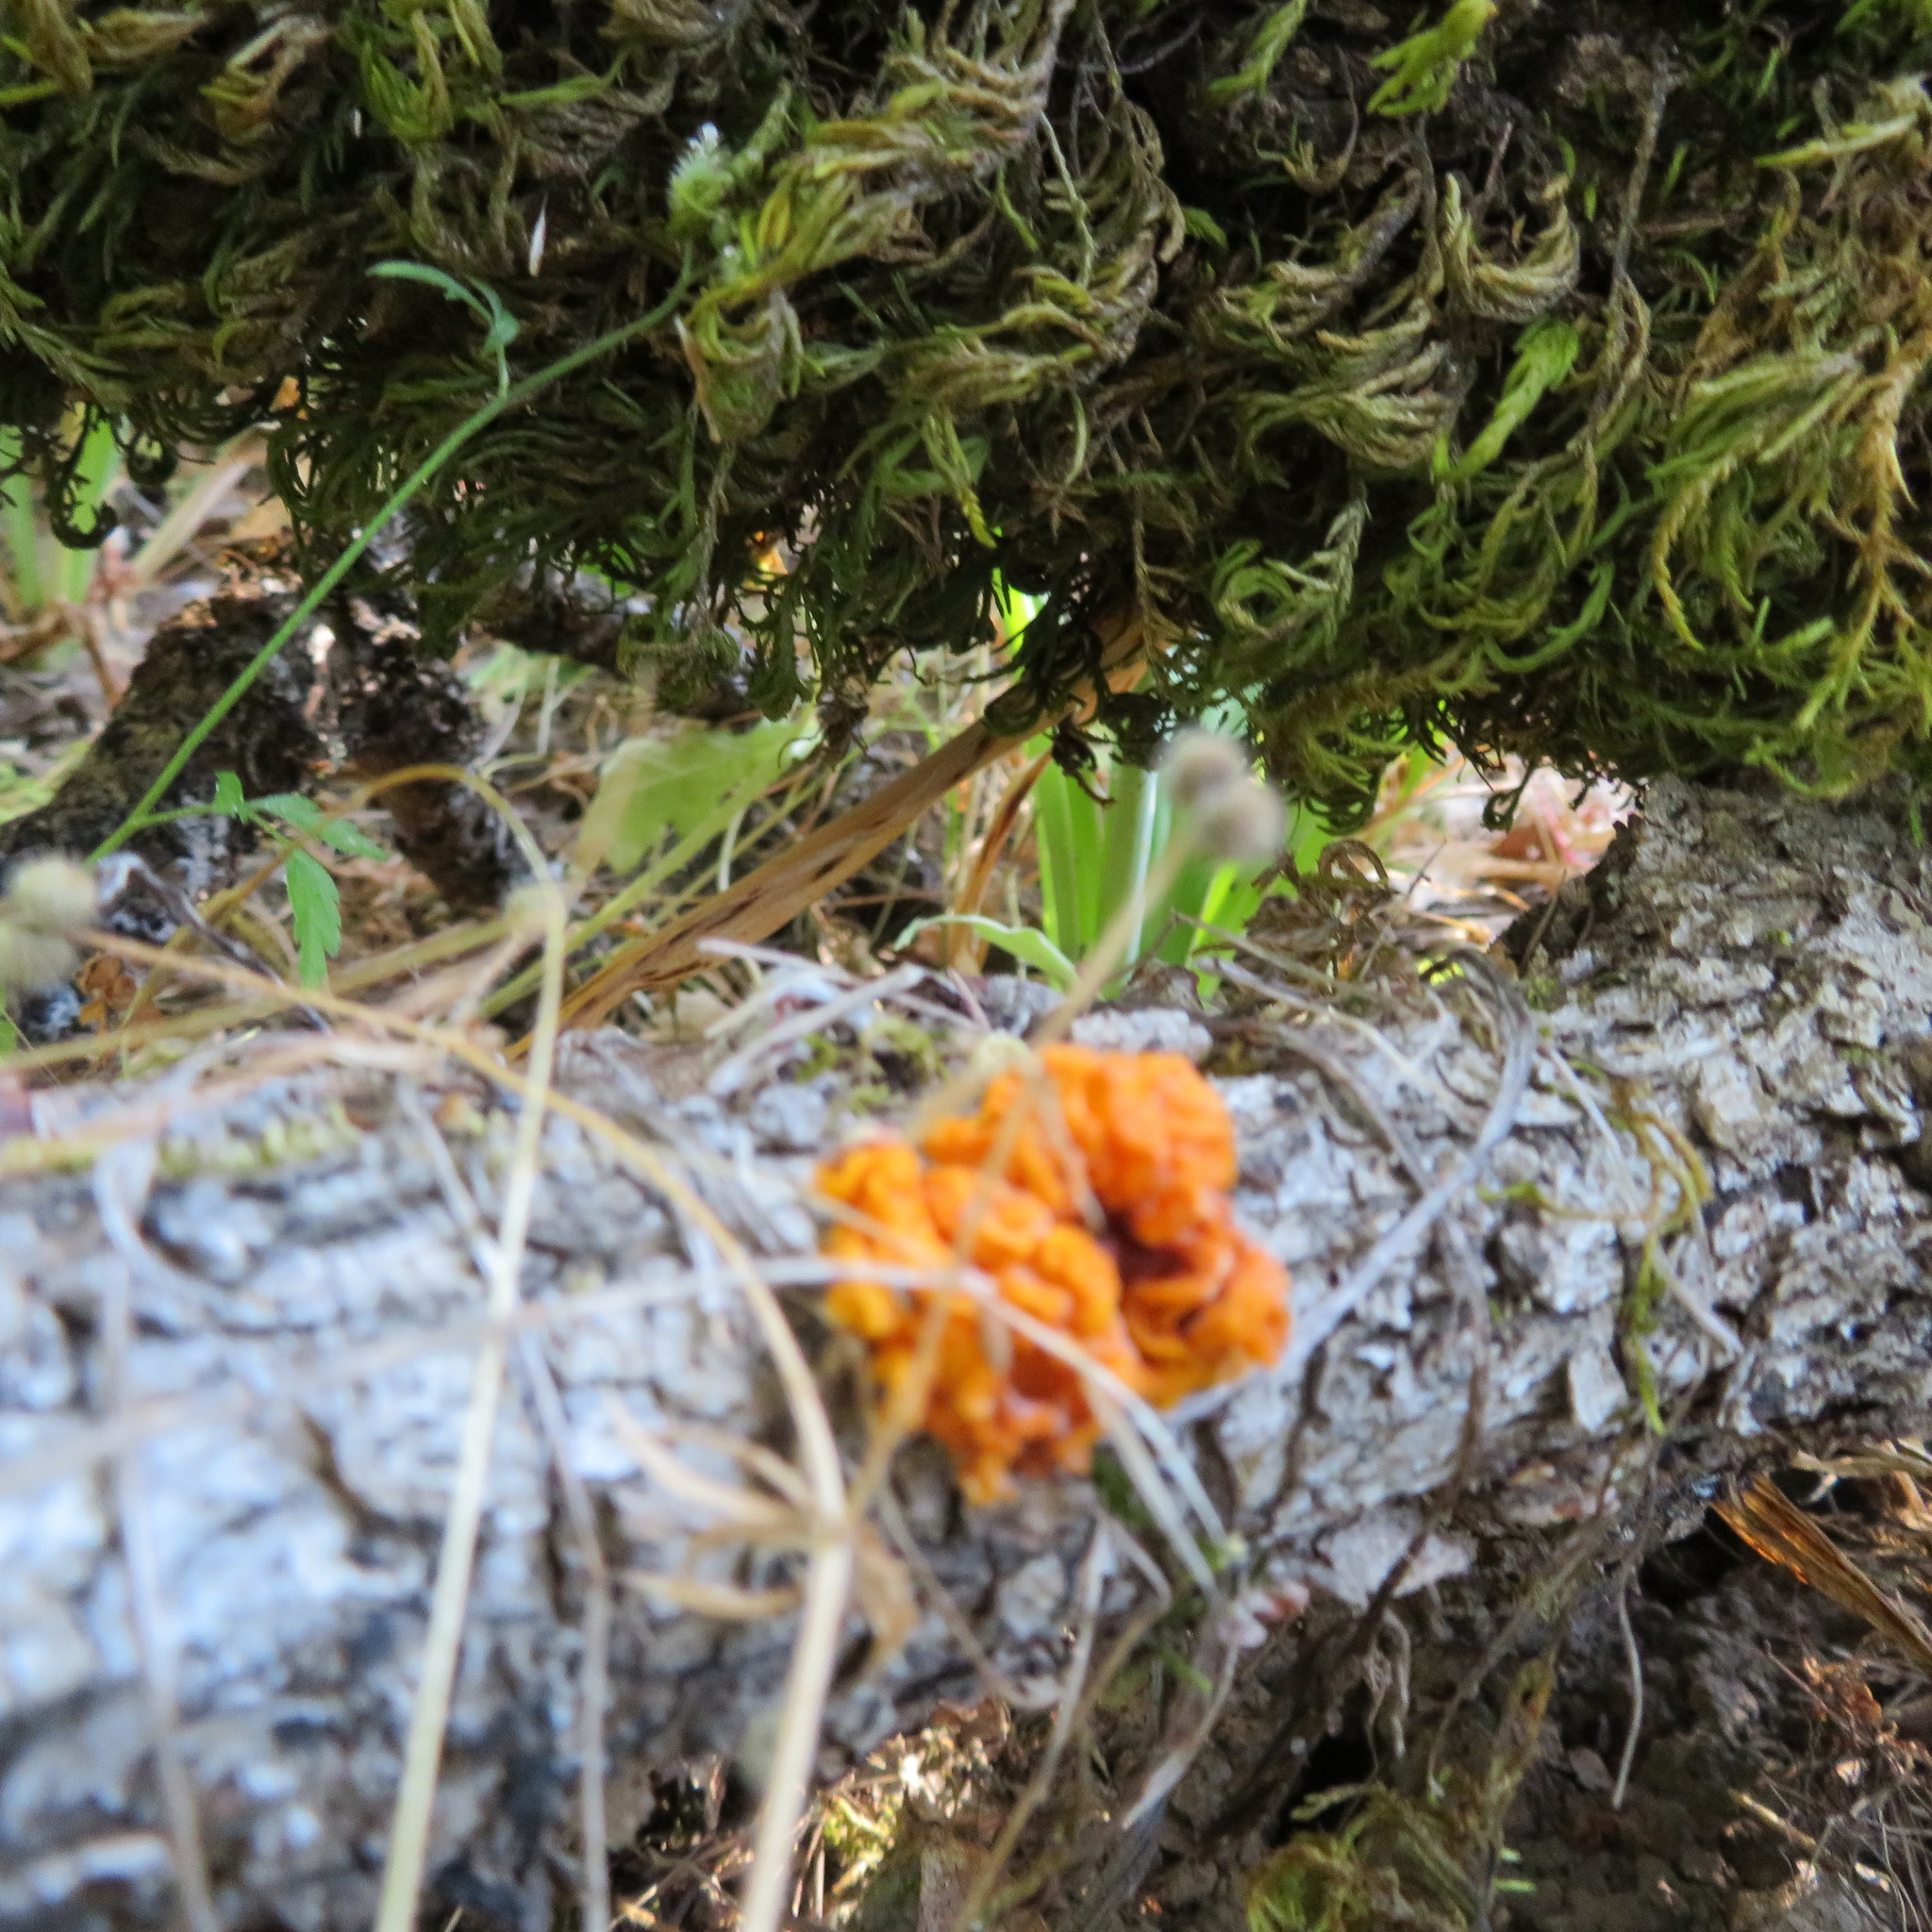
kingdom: Fungi
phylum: Basidiomycota
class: Tremellomycetes
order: Tremellales
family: Naemateliaceae
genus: Naematelia
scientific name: Naematelia aurantia
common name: Golden ear
